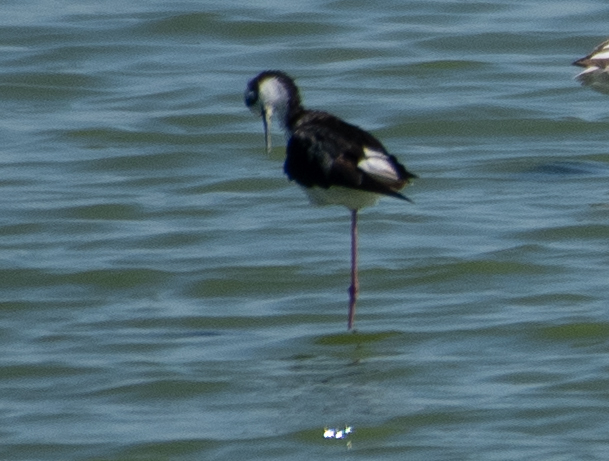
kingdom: Animalia
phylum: Chordata
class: Aves
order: Charadriiformes
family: Recurvirostridae
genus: Himantopus
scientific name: Himantopus mexicanus
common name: Black-necked stilt
